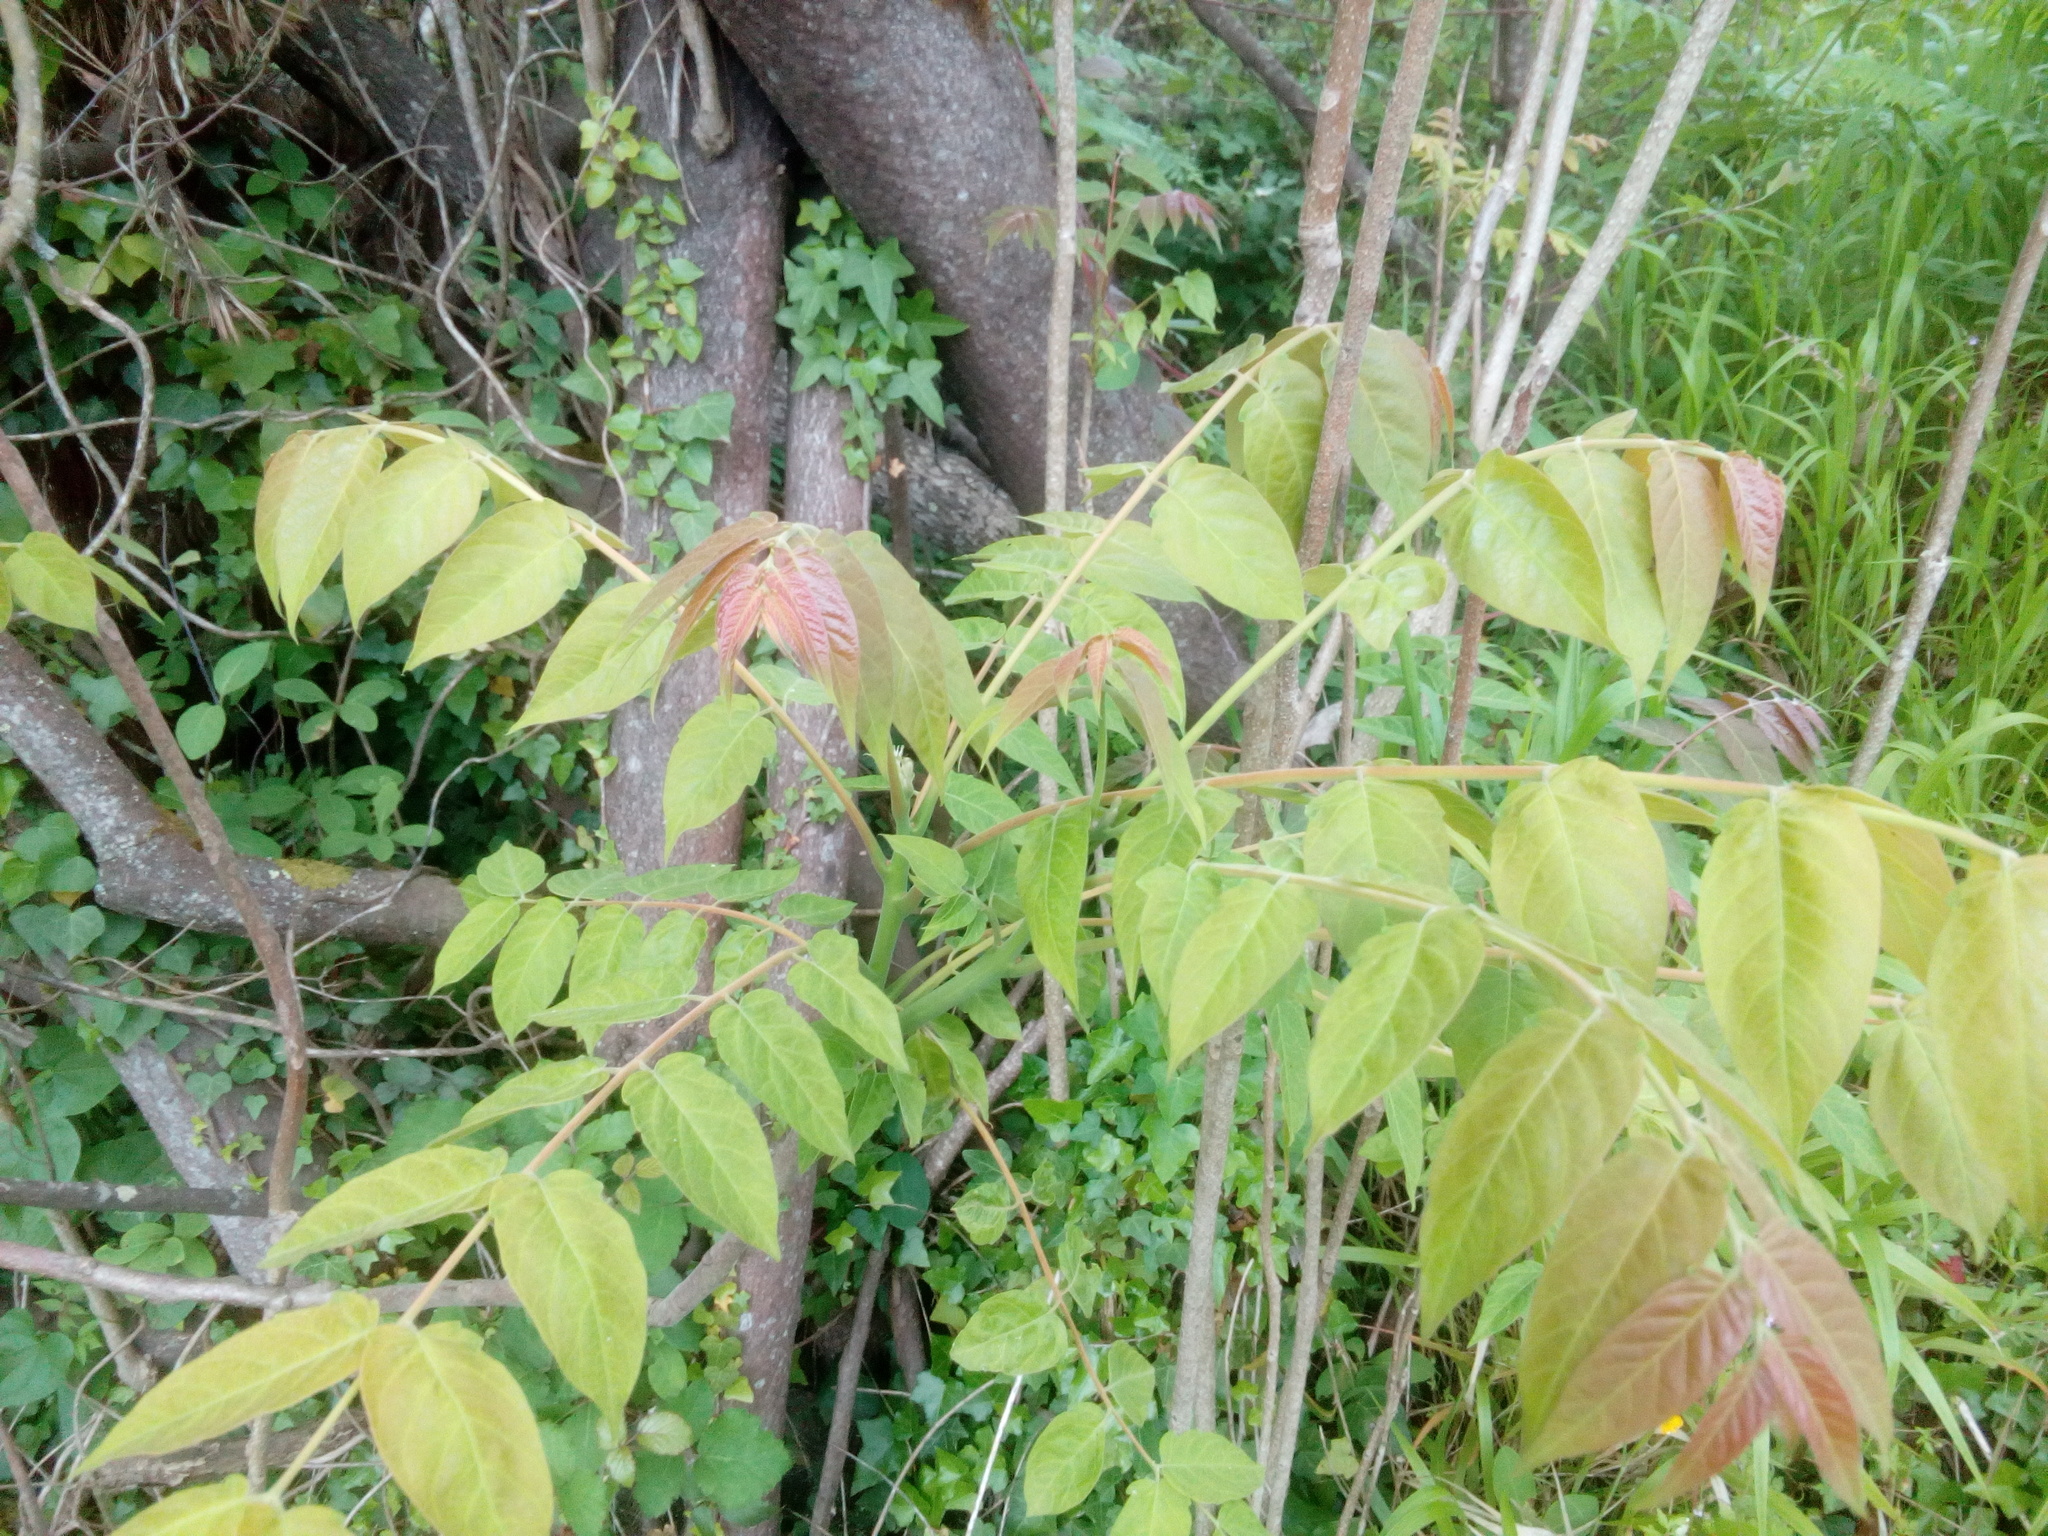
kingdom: Plantae
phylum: Tracheophyta
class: Magnoliopsida
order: Sapindales
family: Simaroubaceae
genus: Ailanthus
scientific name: Ailanthus altissima
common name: Tree-of-heaven
